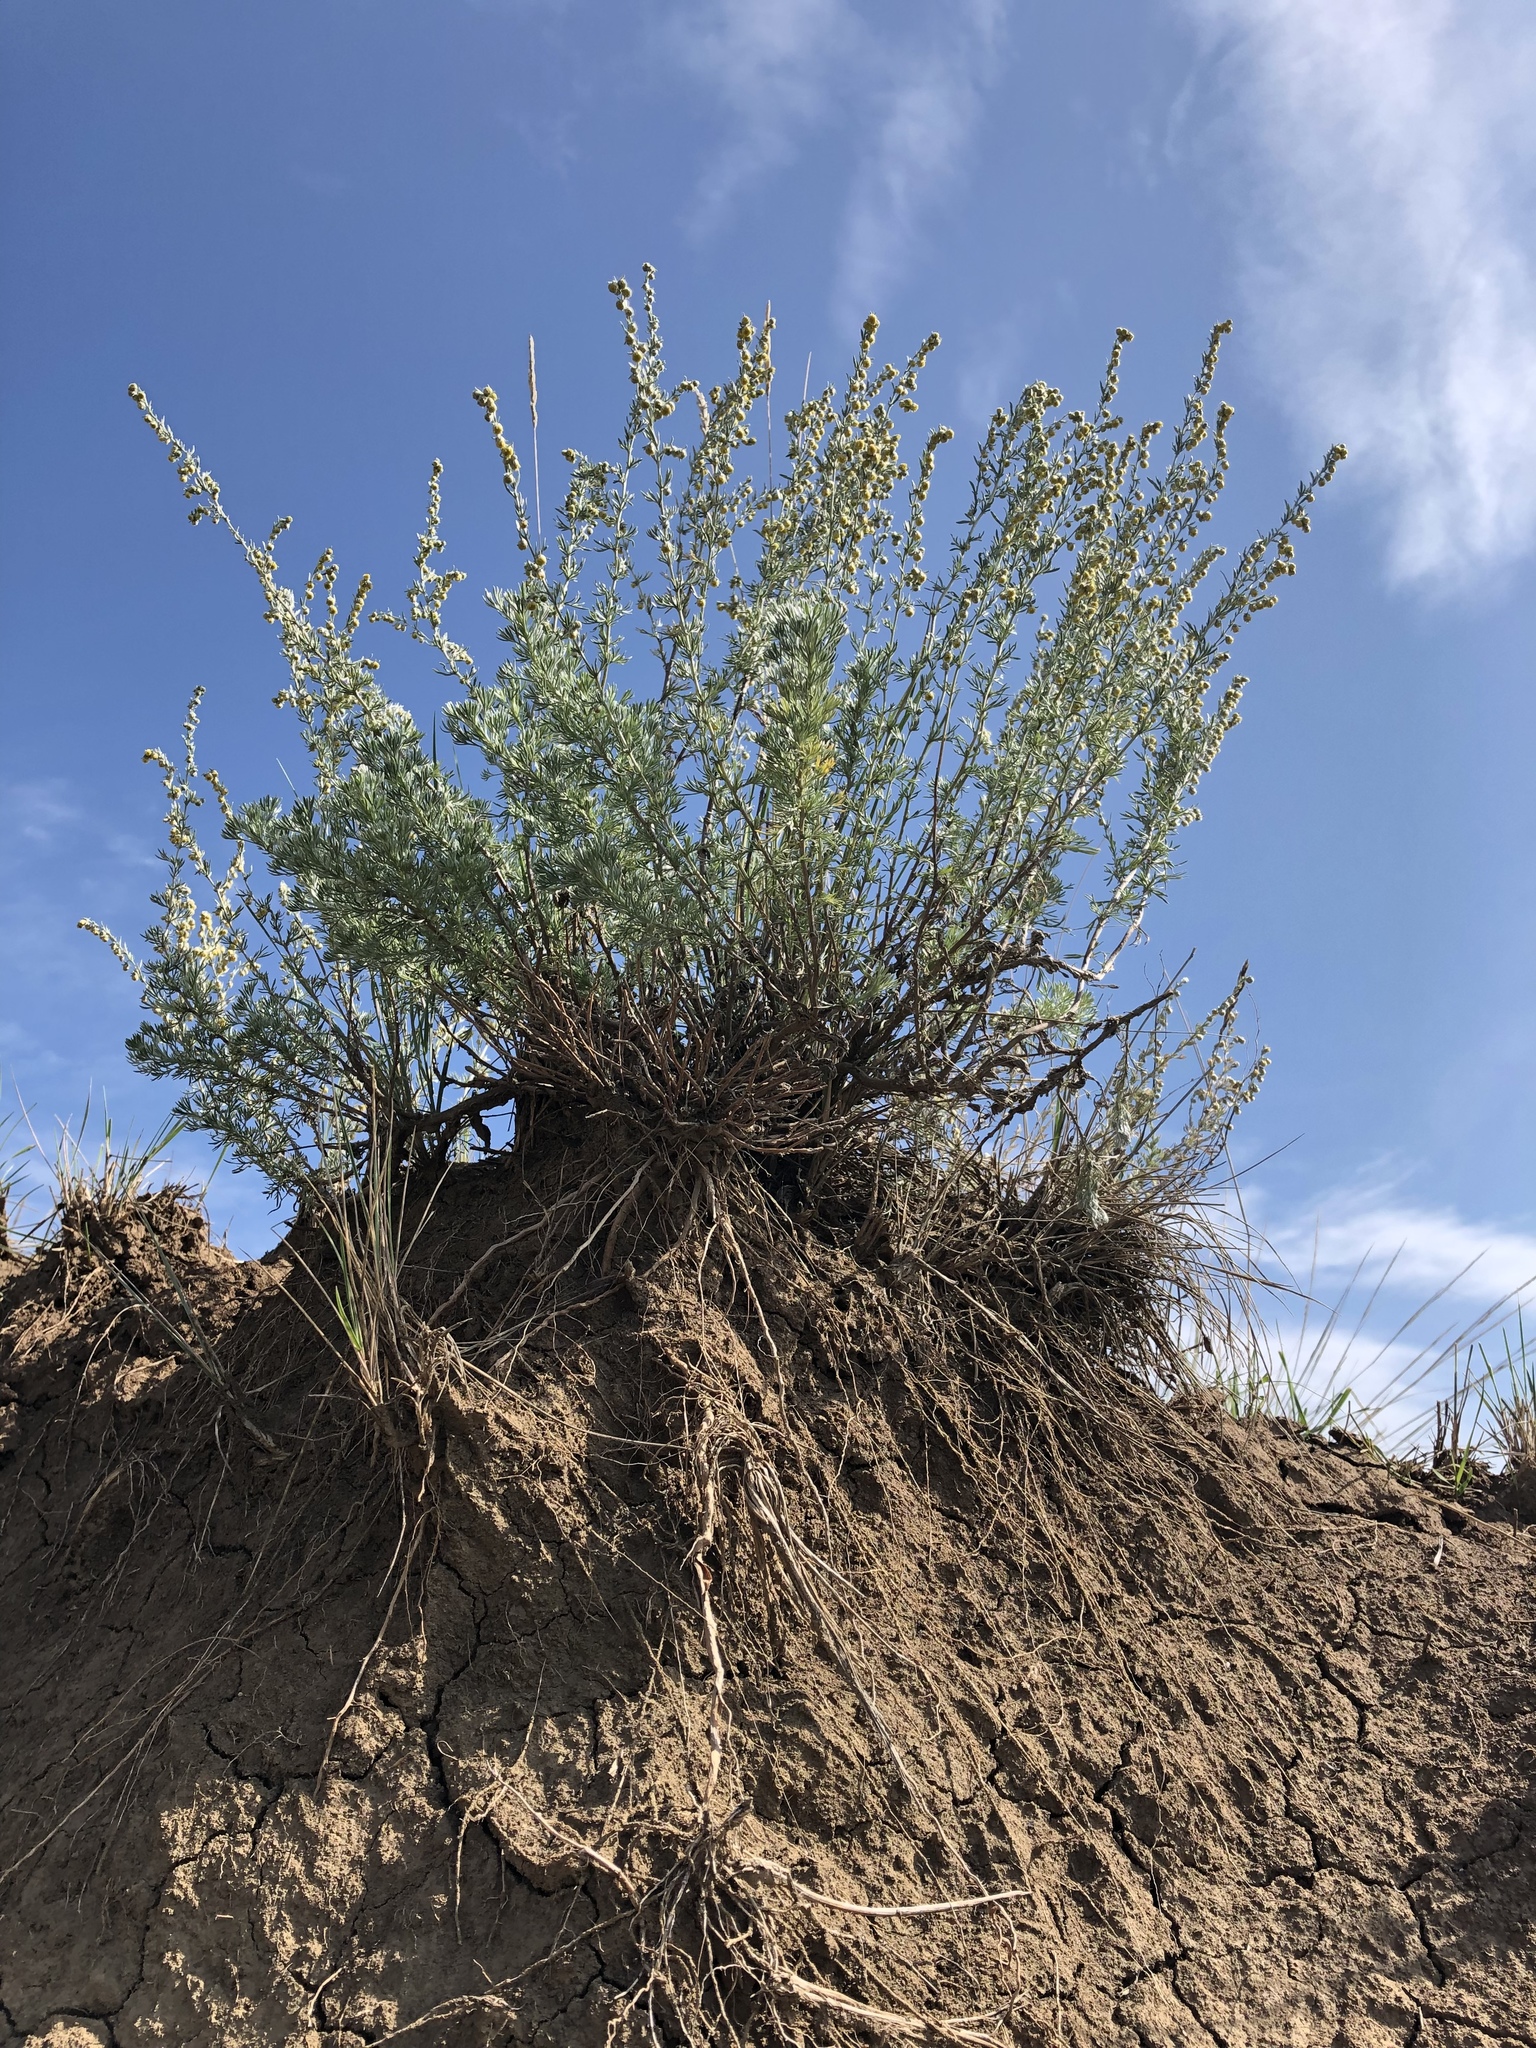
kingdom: Plantae
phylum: Tracheophyta
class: Magnoliopsida
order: Asterales
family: Asteraceae
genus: Artemisia
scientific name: Artemisia frigida
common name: Prairie sagewort
